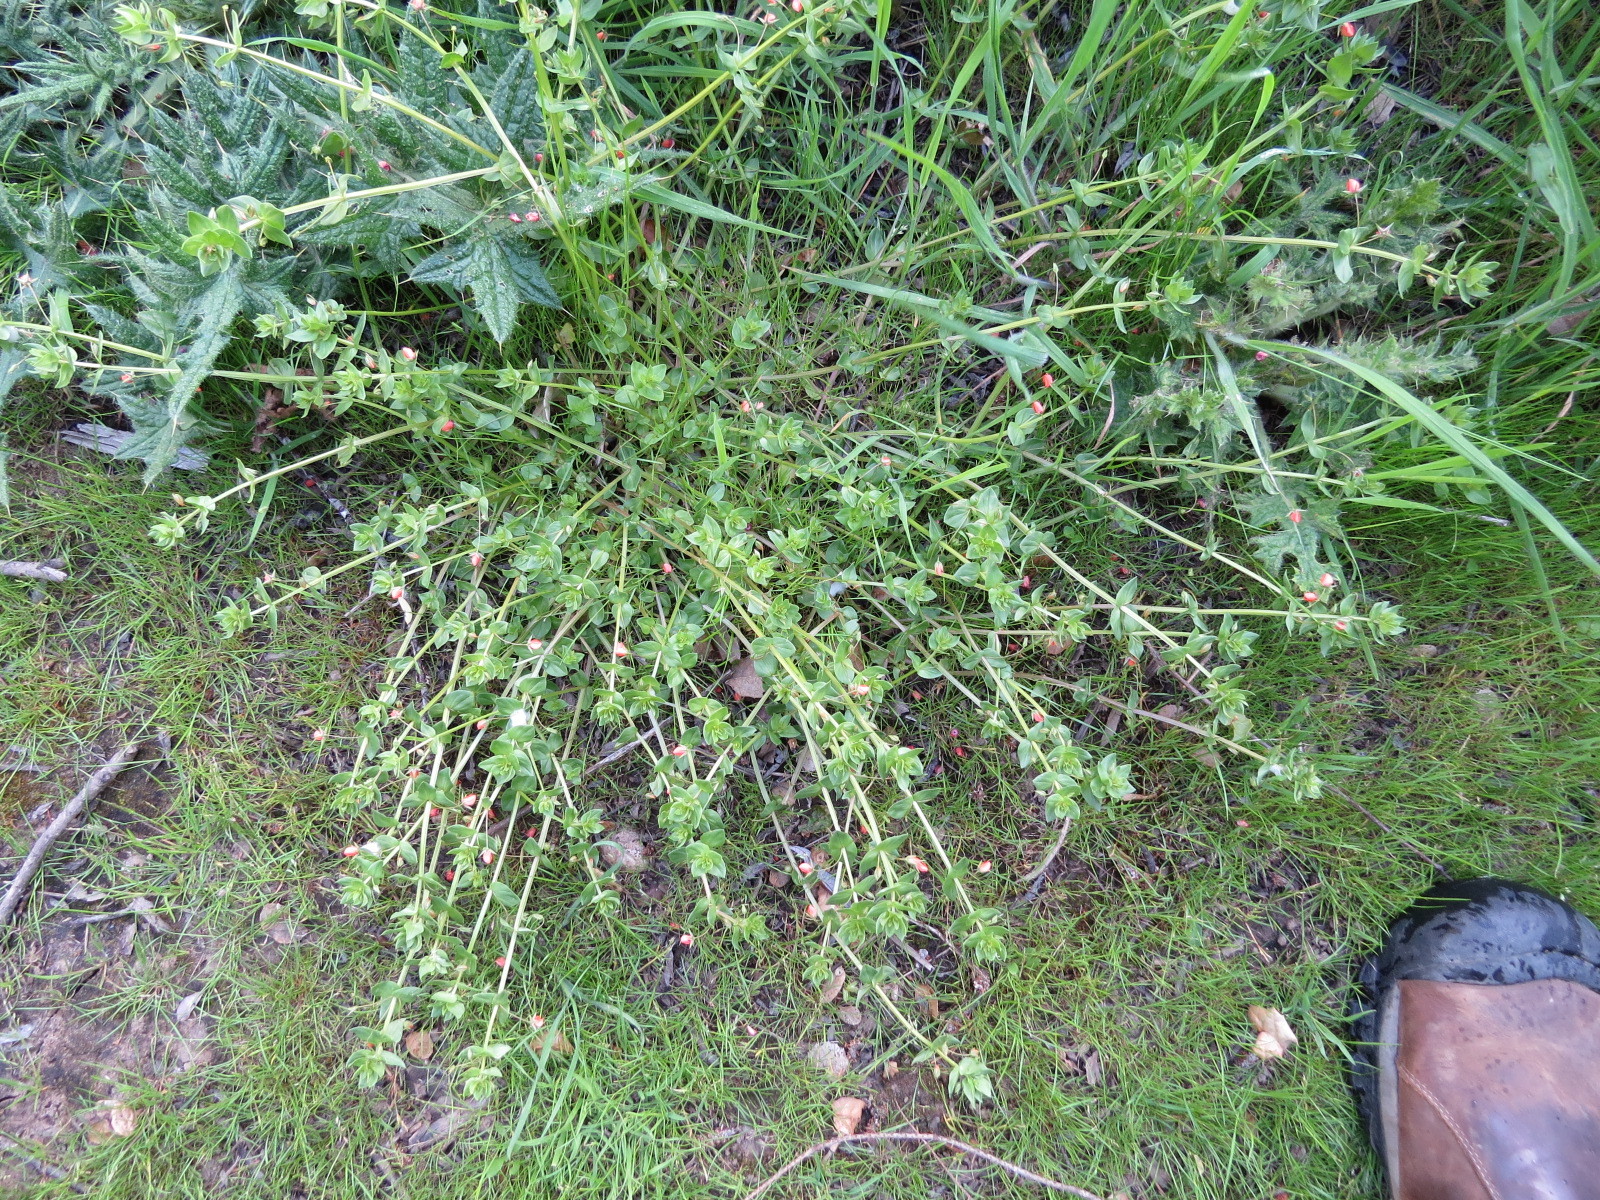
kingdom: Plantae
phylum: Tracheophyta
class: Magnoliopsida
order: Ericales
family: Primulaceae
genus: Lysimachia
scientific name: Lysimachia arvensis
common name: Scarlet pimpernel
